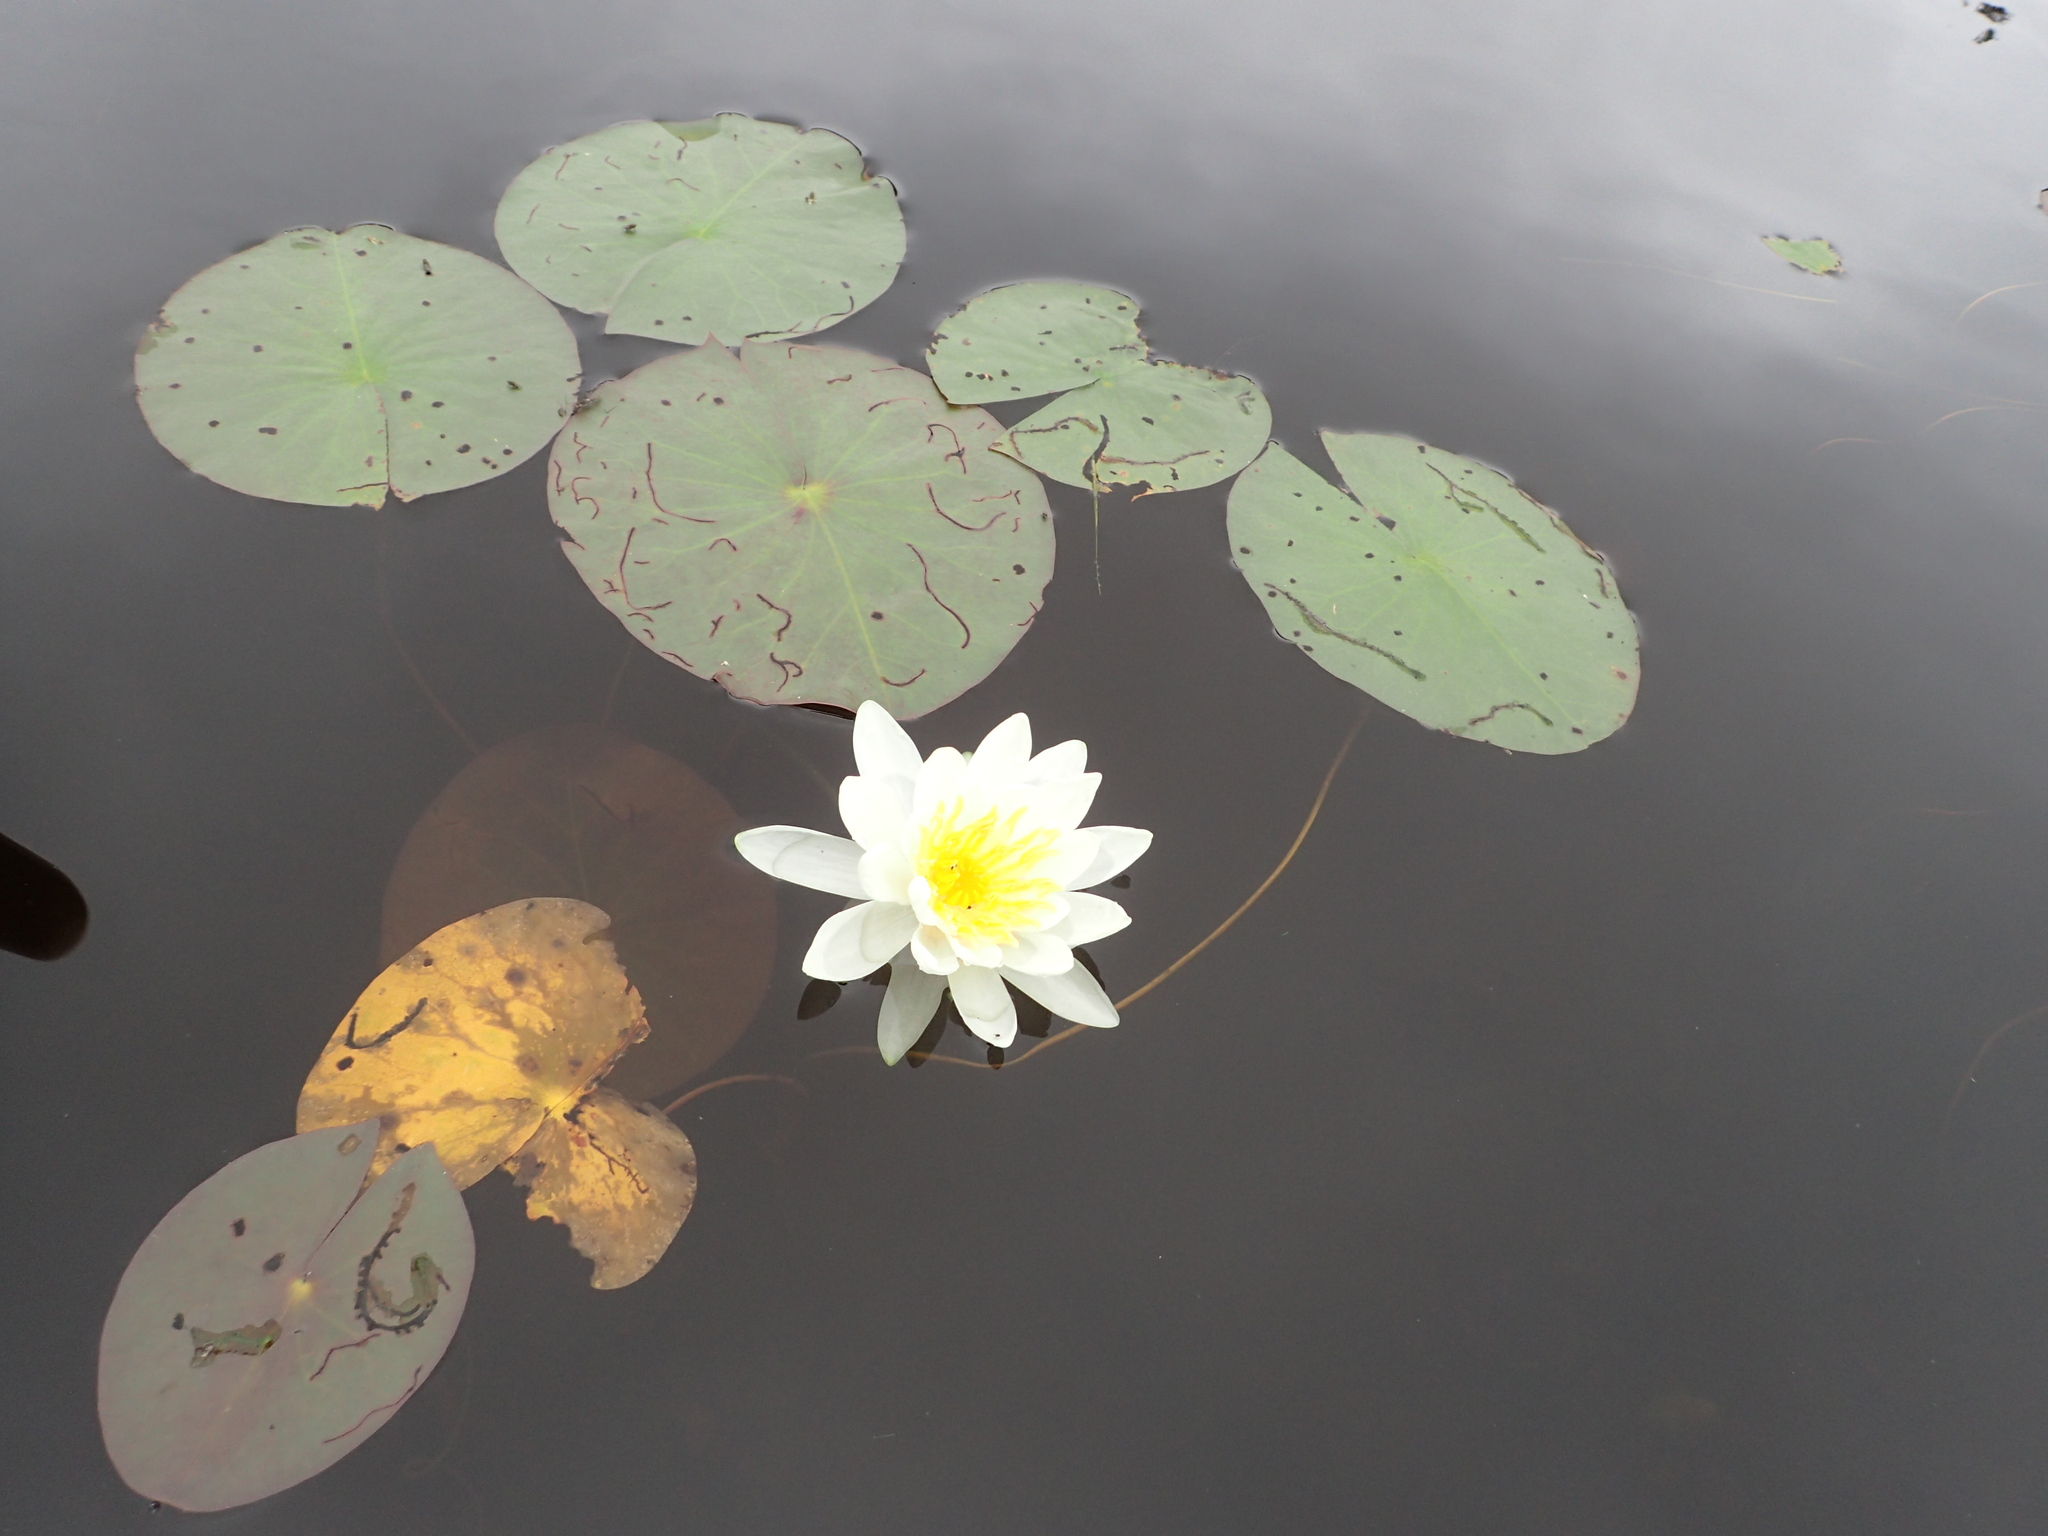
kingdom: Plantae
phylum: Tracheophyta
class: Magnoliopsida
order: Nymphaeales
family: Nymphaeaceae
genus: Nymphaea
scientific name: Nymphaea odorata
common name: Fragrant water-lily
